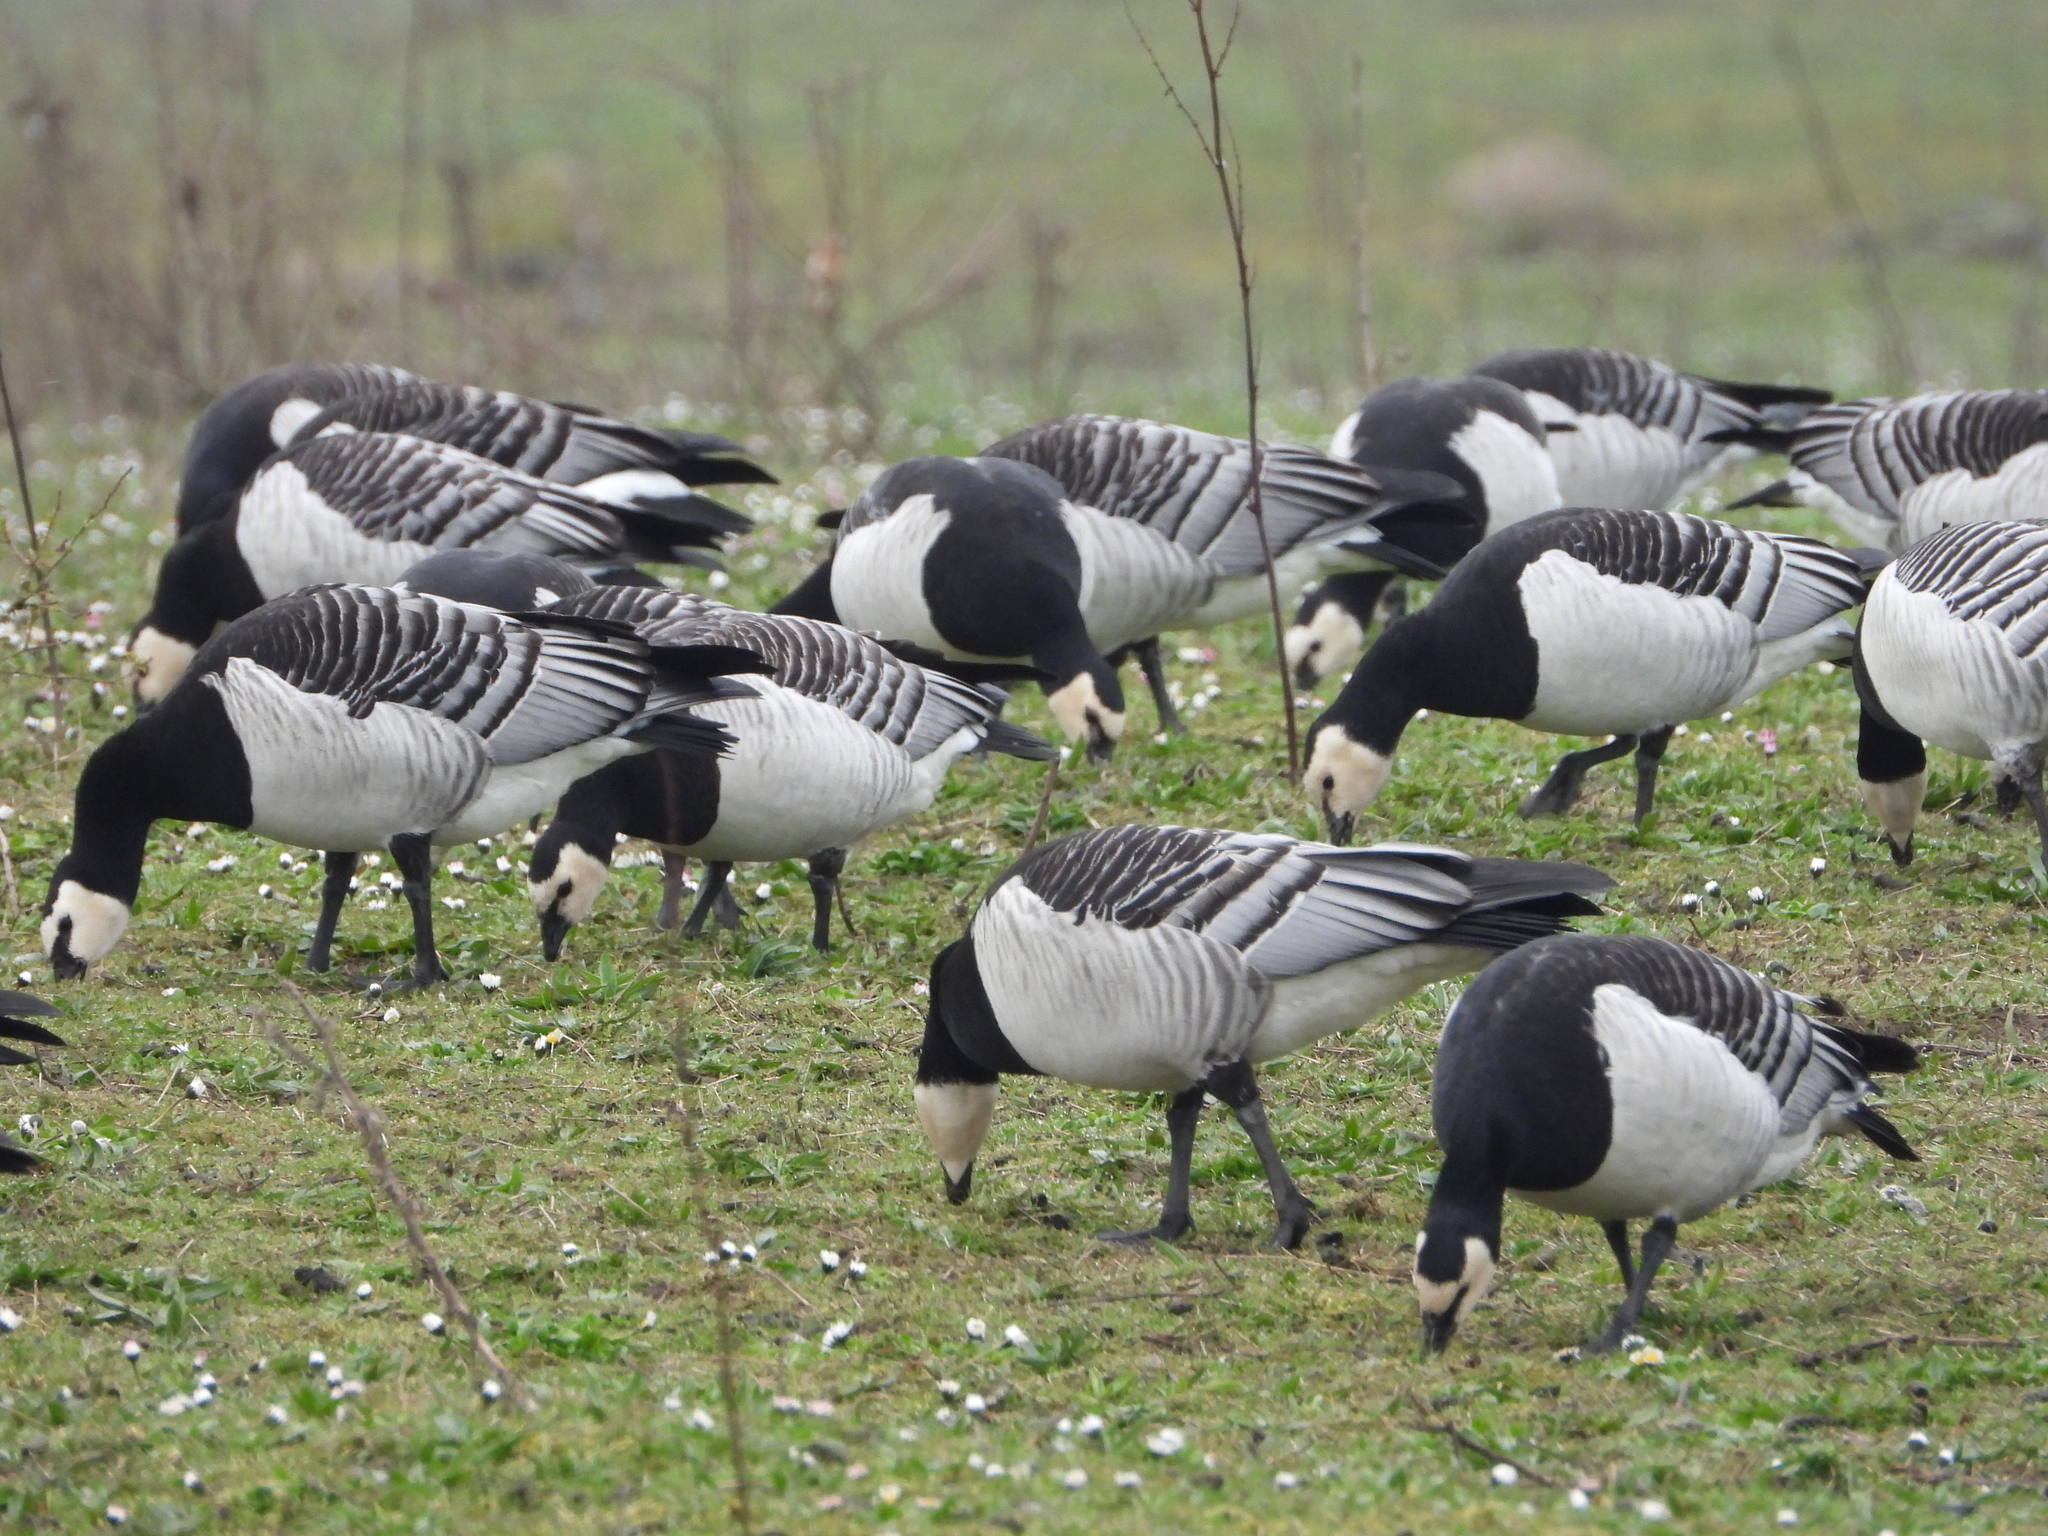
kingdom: Animalia
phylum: Chordata
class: Aves
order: Anseriformes
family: Anatidae
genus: Branta
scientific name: Branta leucopsis
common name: Barnacle goose
